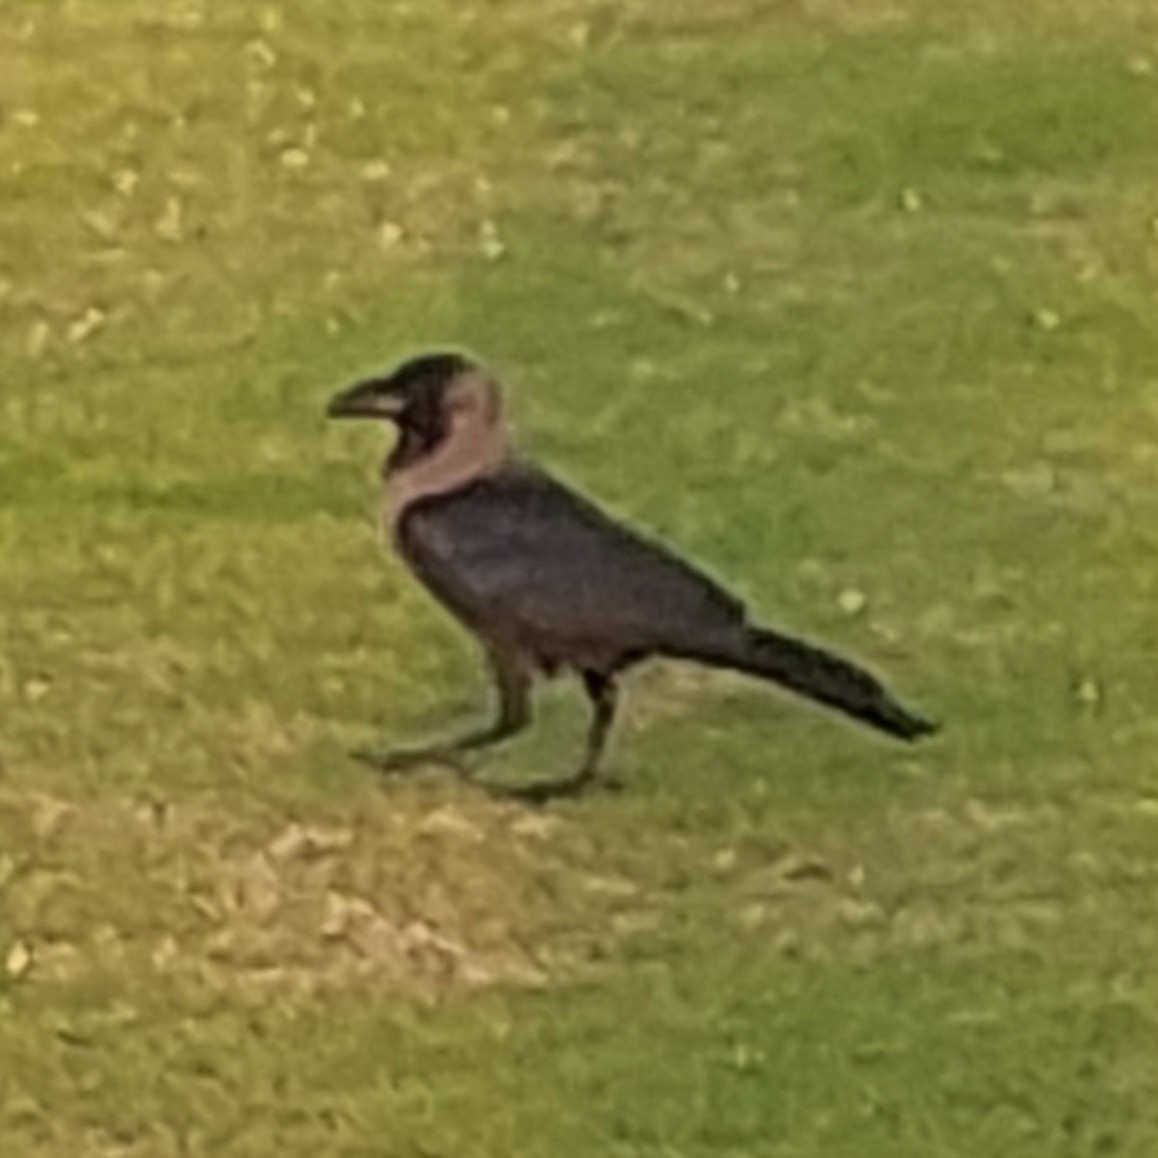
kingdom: Animalia
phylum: Chordata
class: Aves
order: Passeriformes
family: Corvidae
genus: Corvus
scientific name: Corvus splendens
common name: House crow
